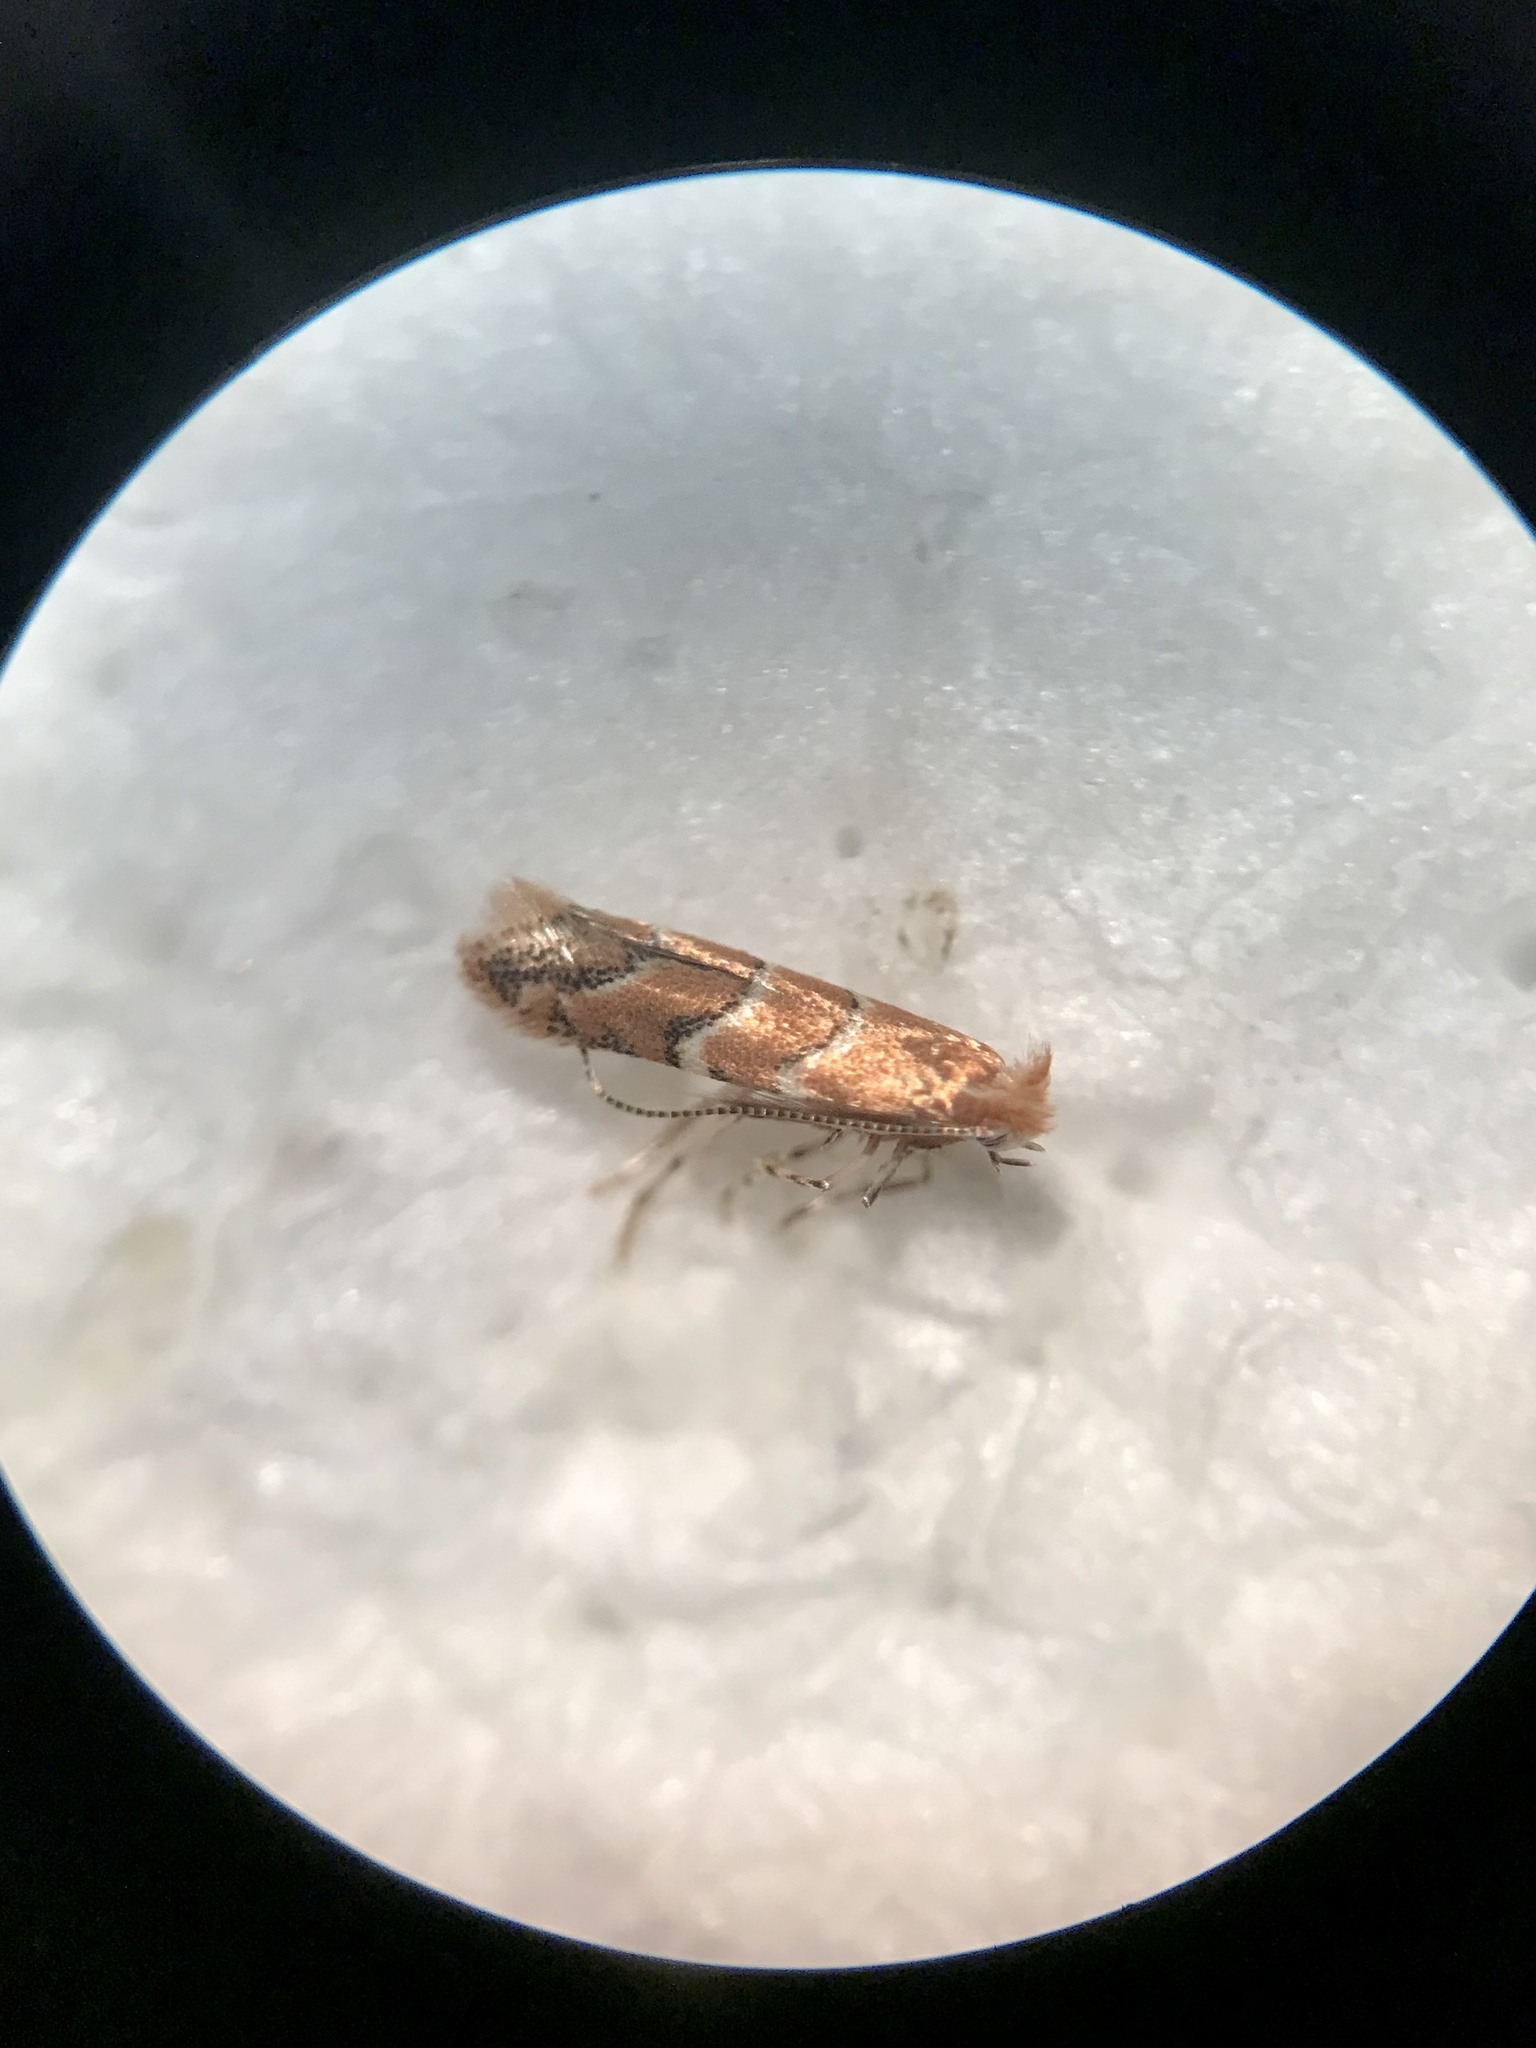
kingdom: Animalia
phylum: Arthropoda
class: Insecta
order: Lepidoptera
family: Gracillariidae
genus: Cameraria
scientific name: Cameraria lentella
